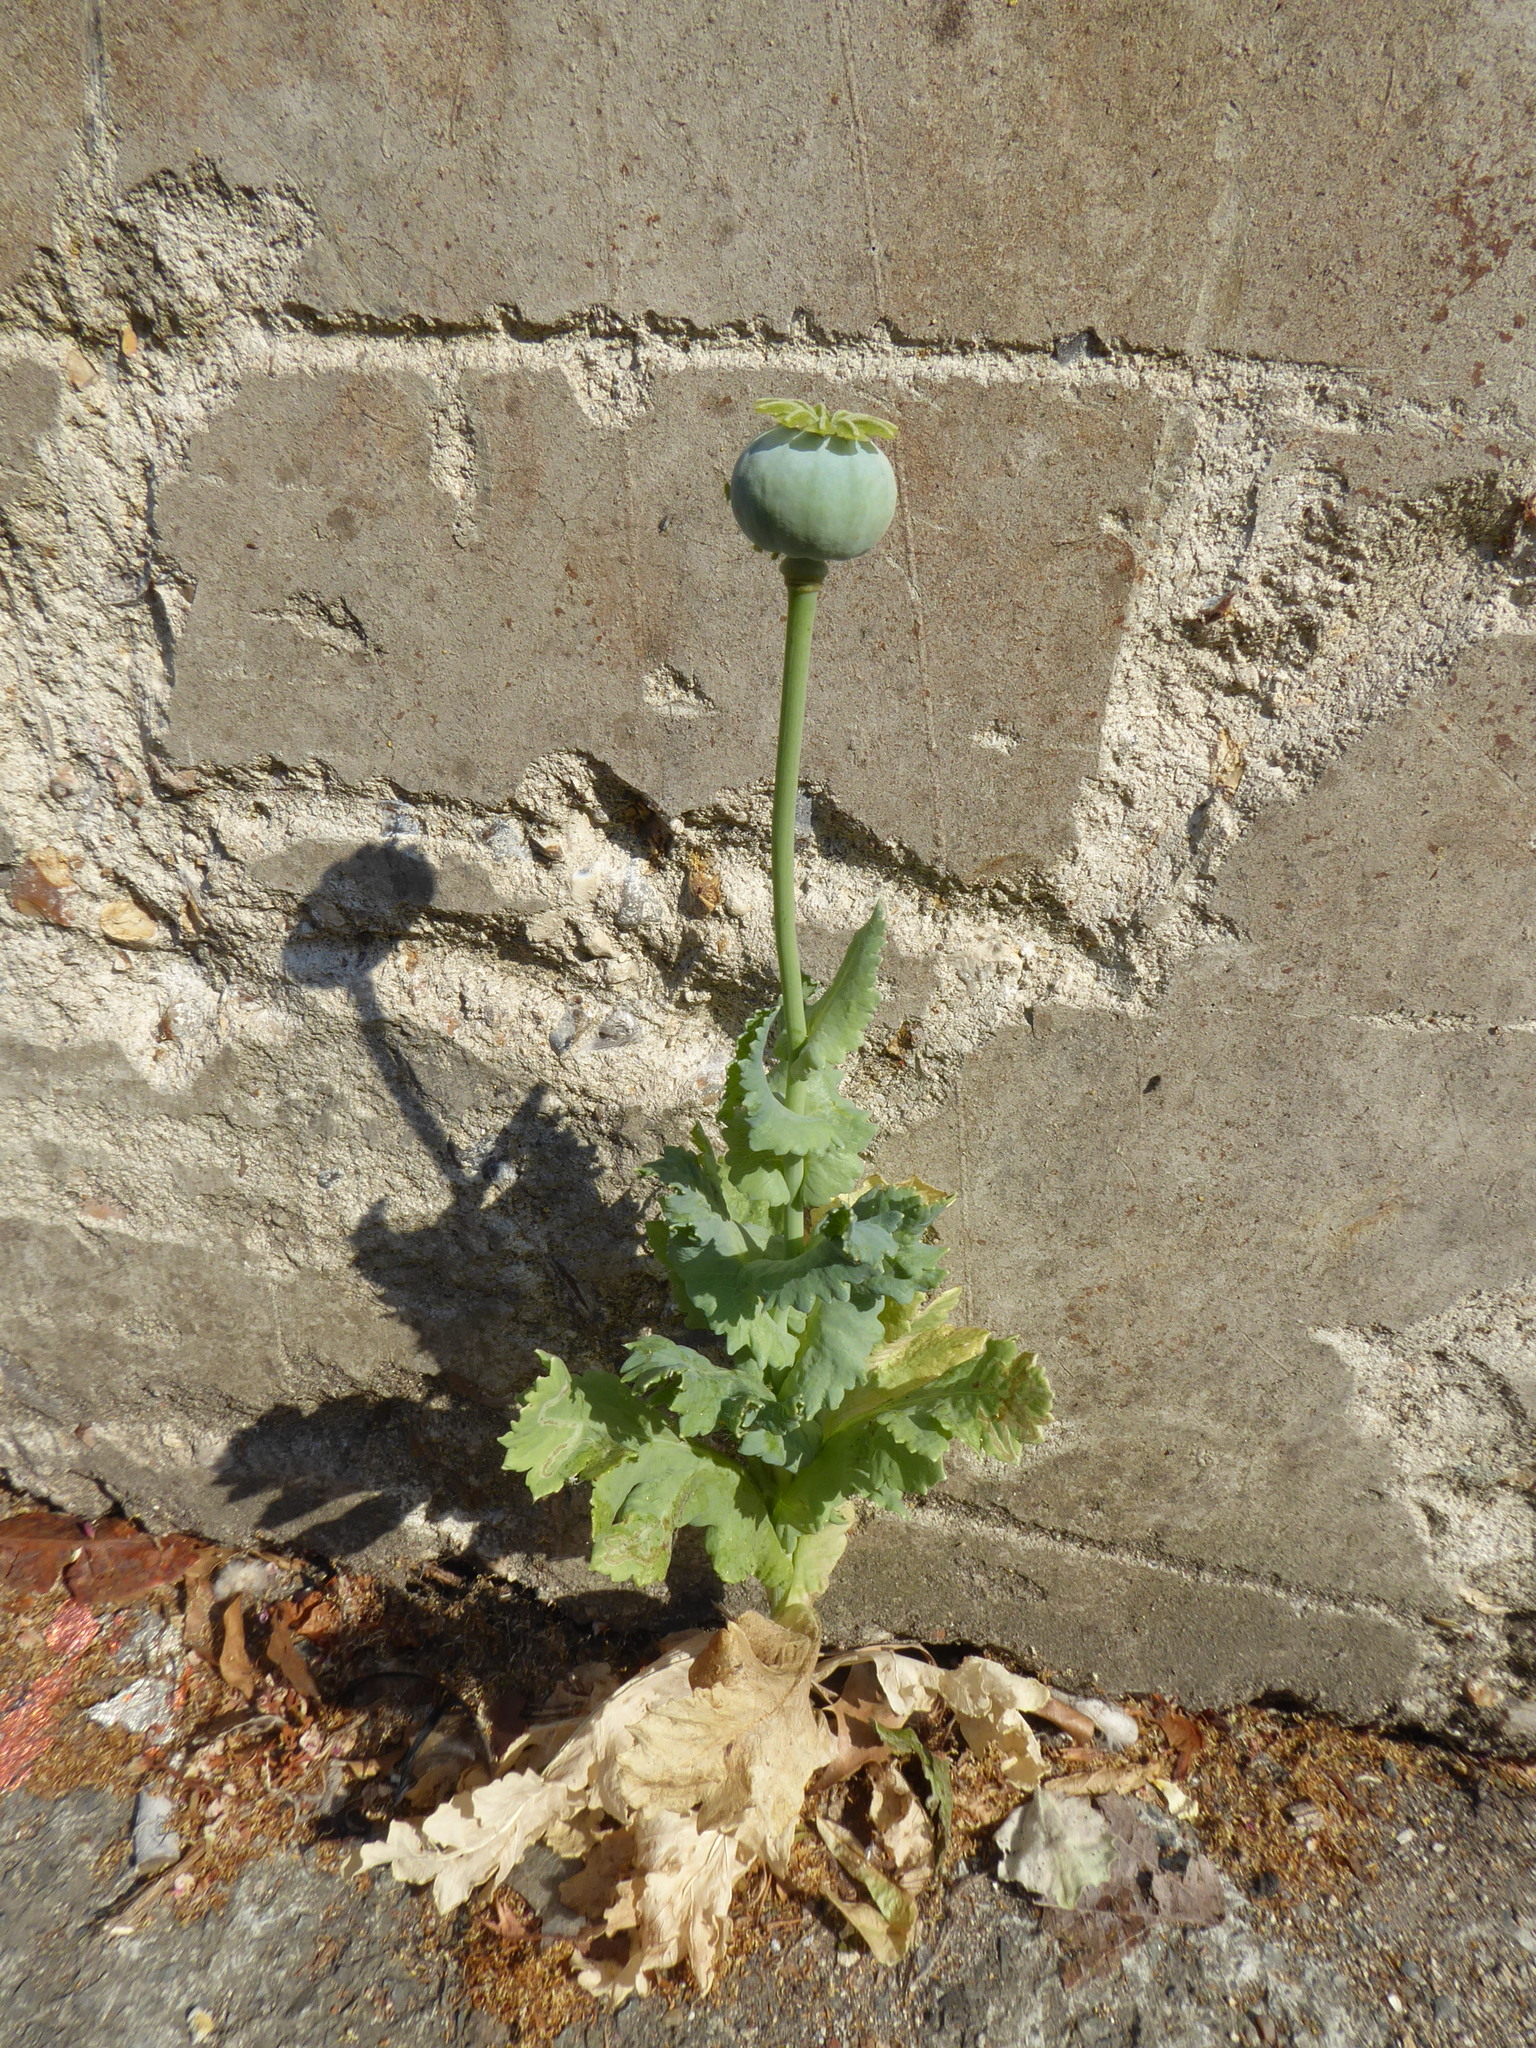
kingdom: Plantae
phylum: Tracheophyta
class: Magnoliopsida
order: Ranunculales
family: Papaveraceae
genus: Papaver
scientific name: Papaver somniferum
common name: Opium poppy
